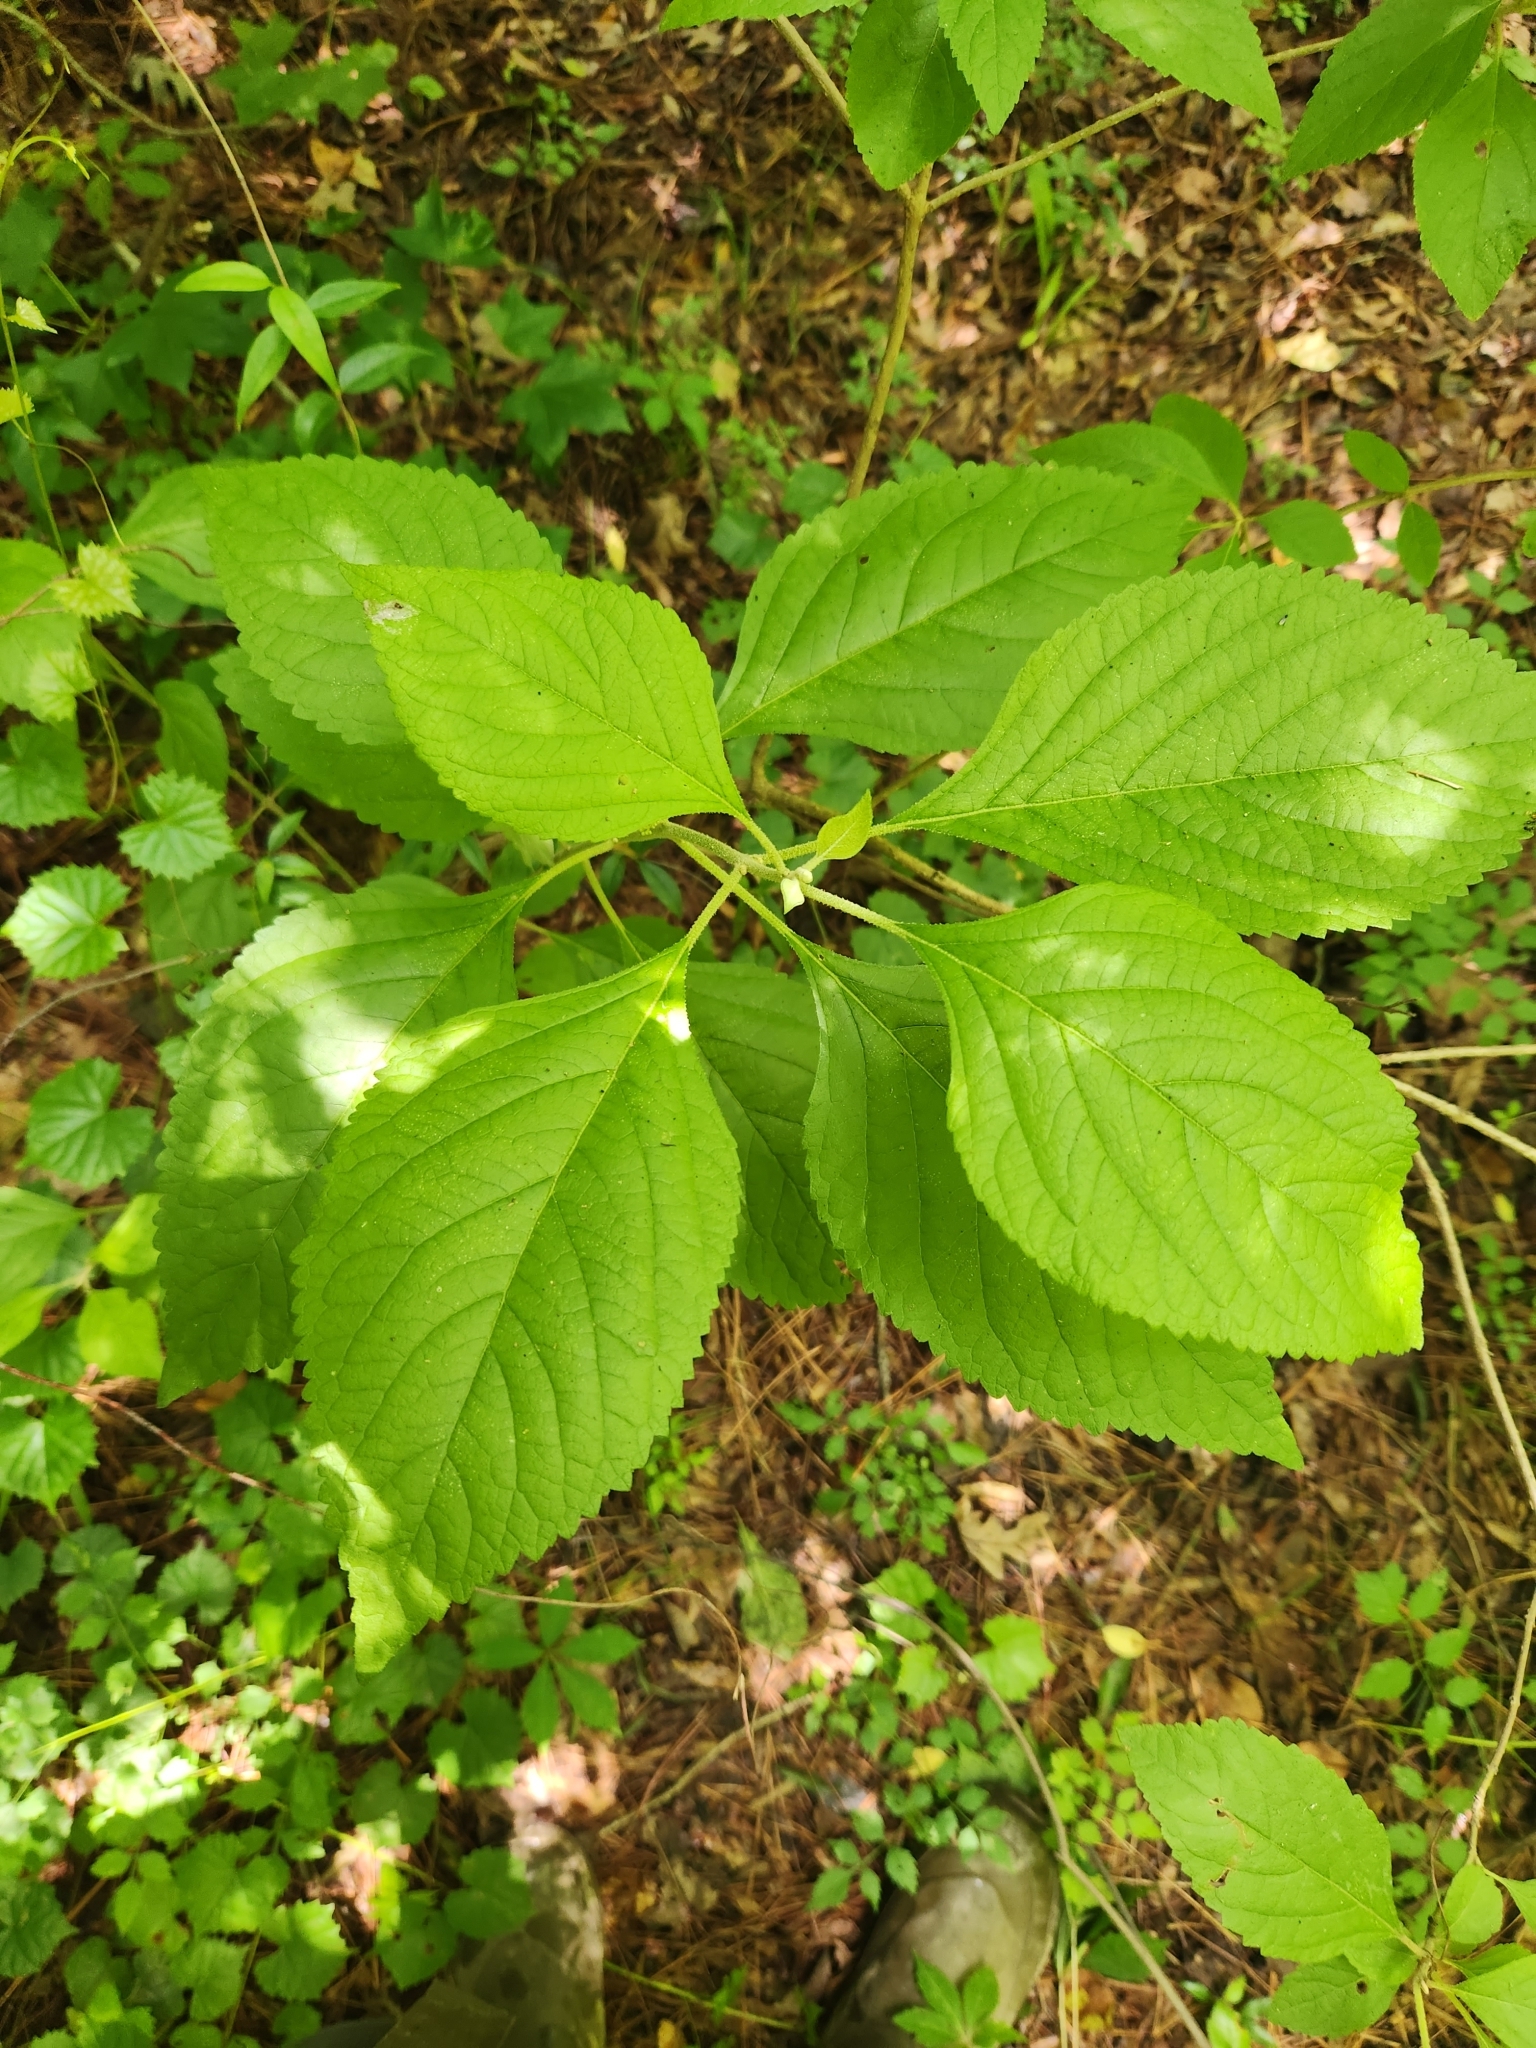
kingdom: Plantae
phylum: Tracheophyta
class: Magnoliopsida
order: Lamiales
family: Lamiaceae
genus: Callicarpa
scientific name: Callicarpa americana
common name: American beautyberry
